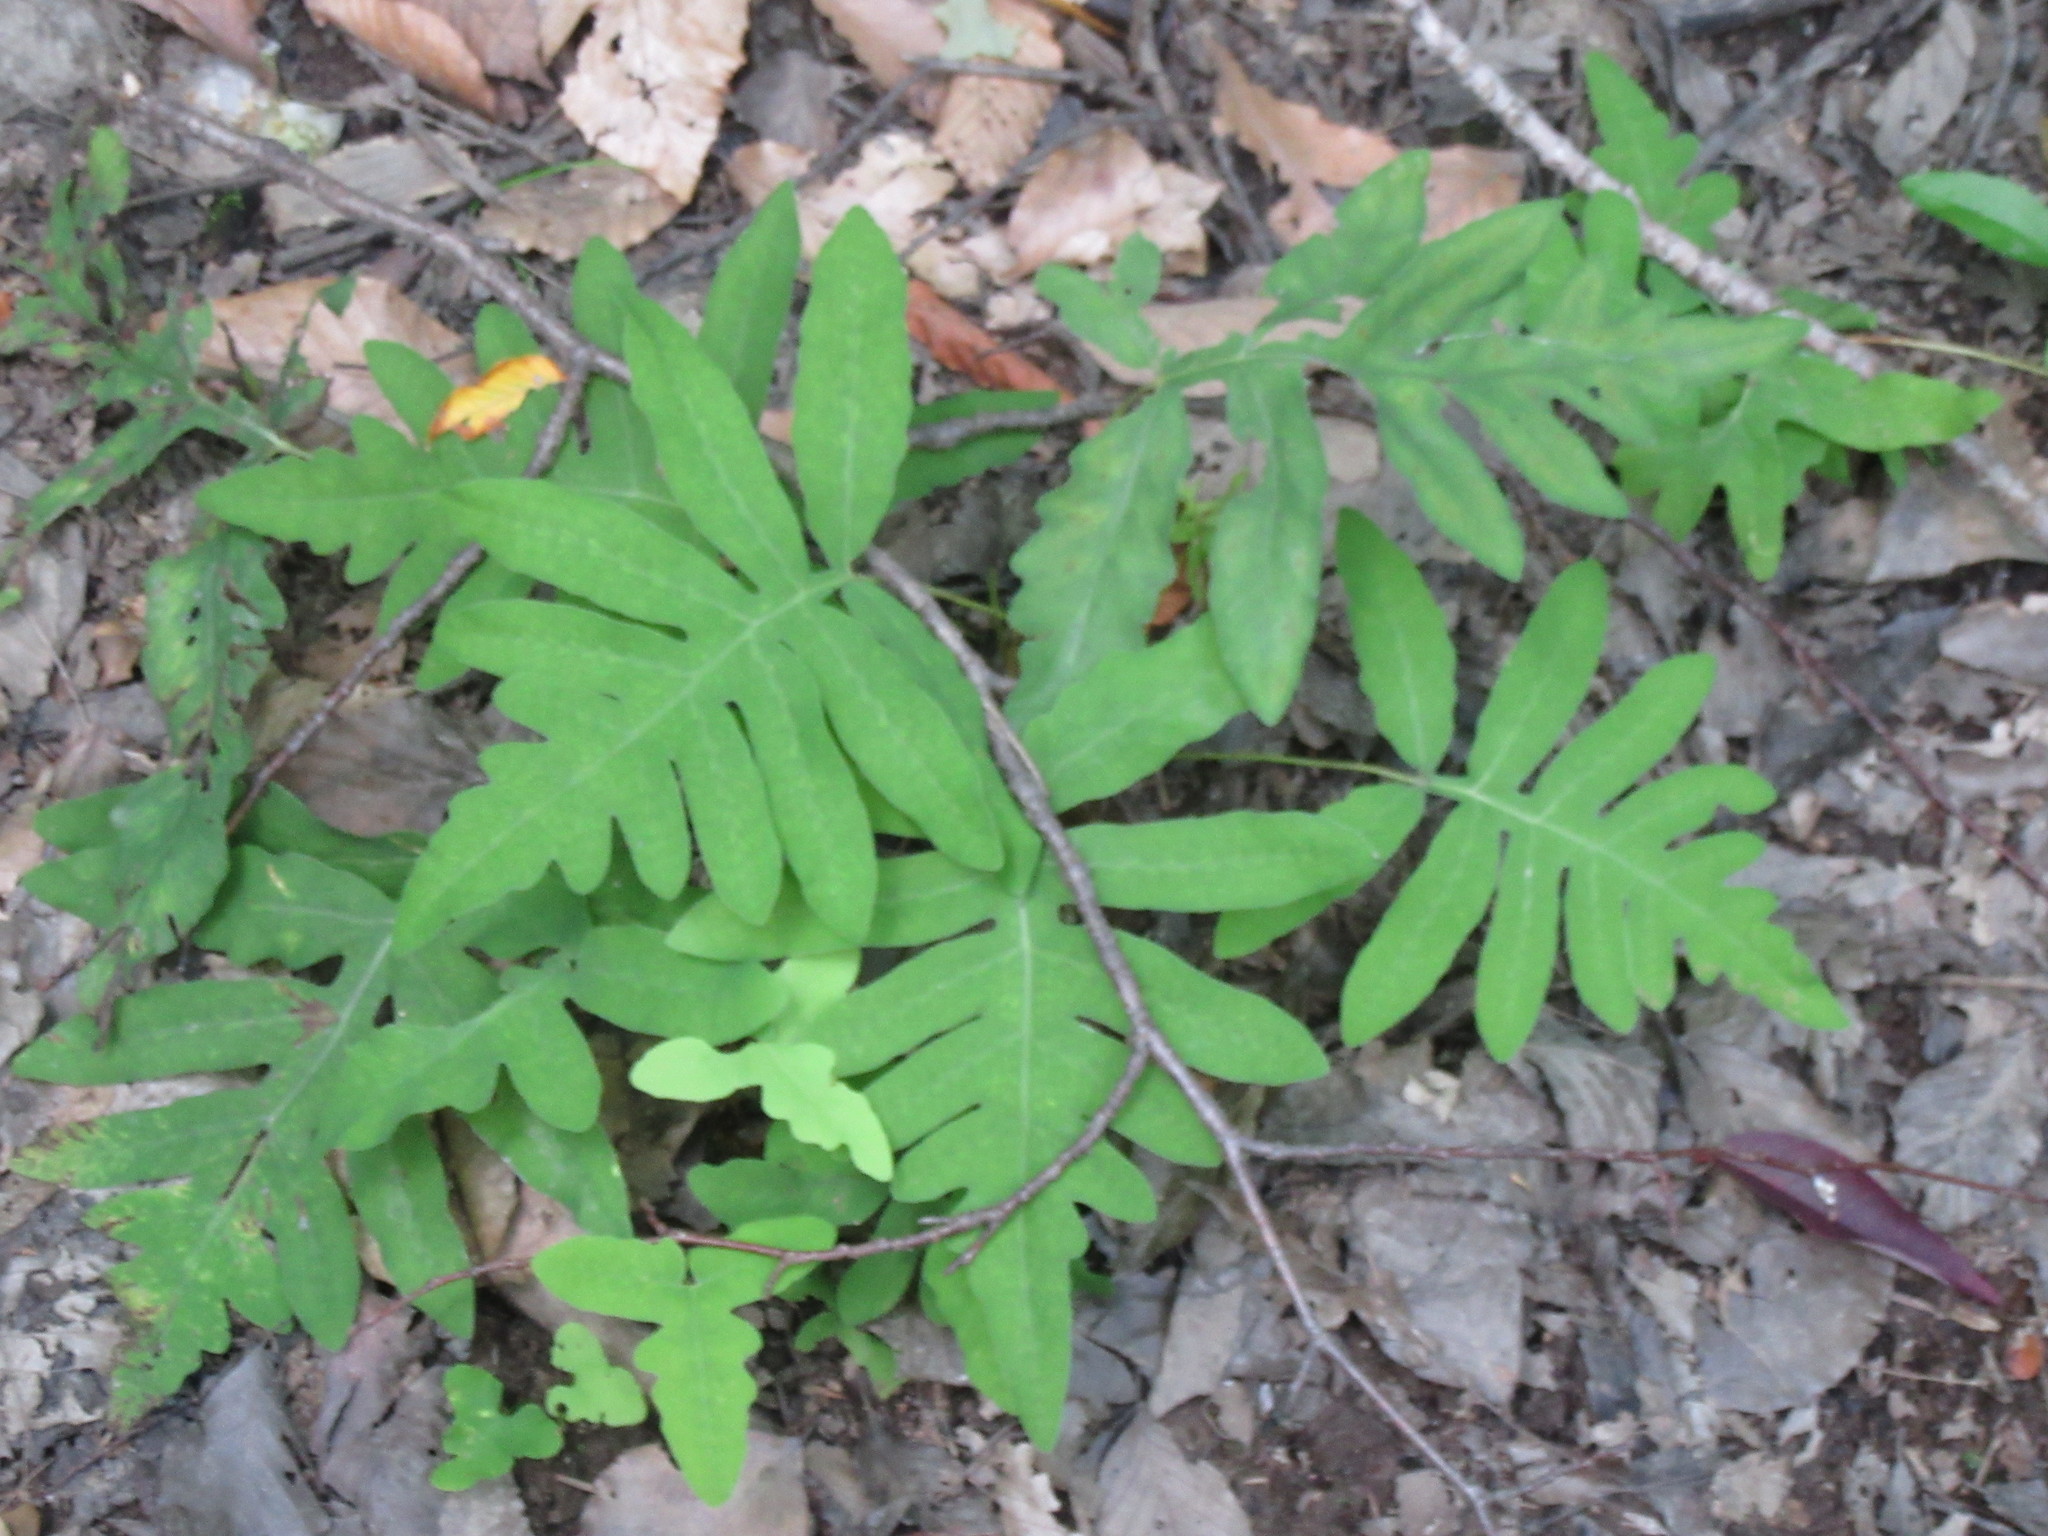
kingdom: Plantae
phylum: Tracheophyta
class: Polypodiopsida
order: Polypodiales
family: Onocleaceae
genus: Onoclea
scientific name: Onoclea sensibilis
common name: Sensitive fern
